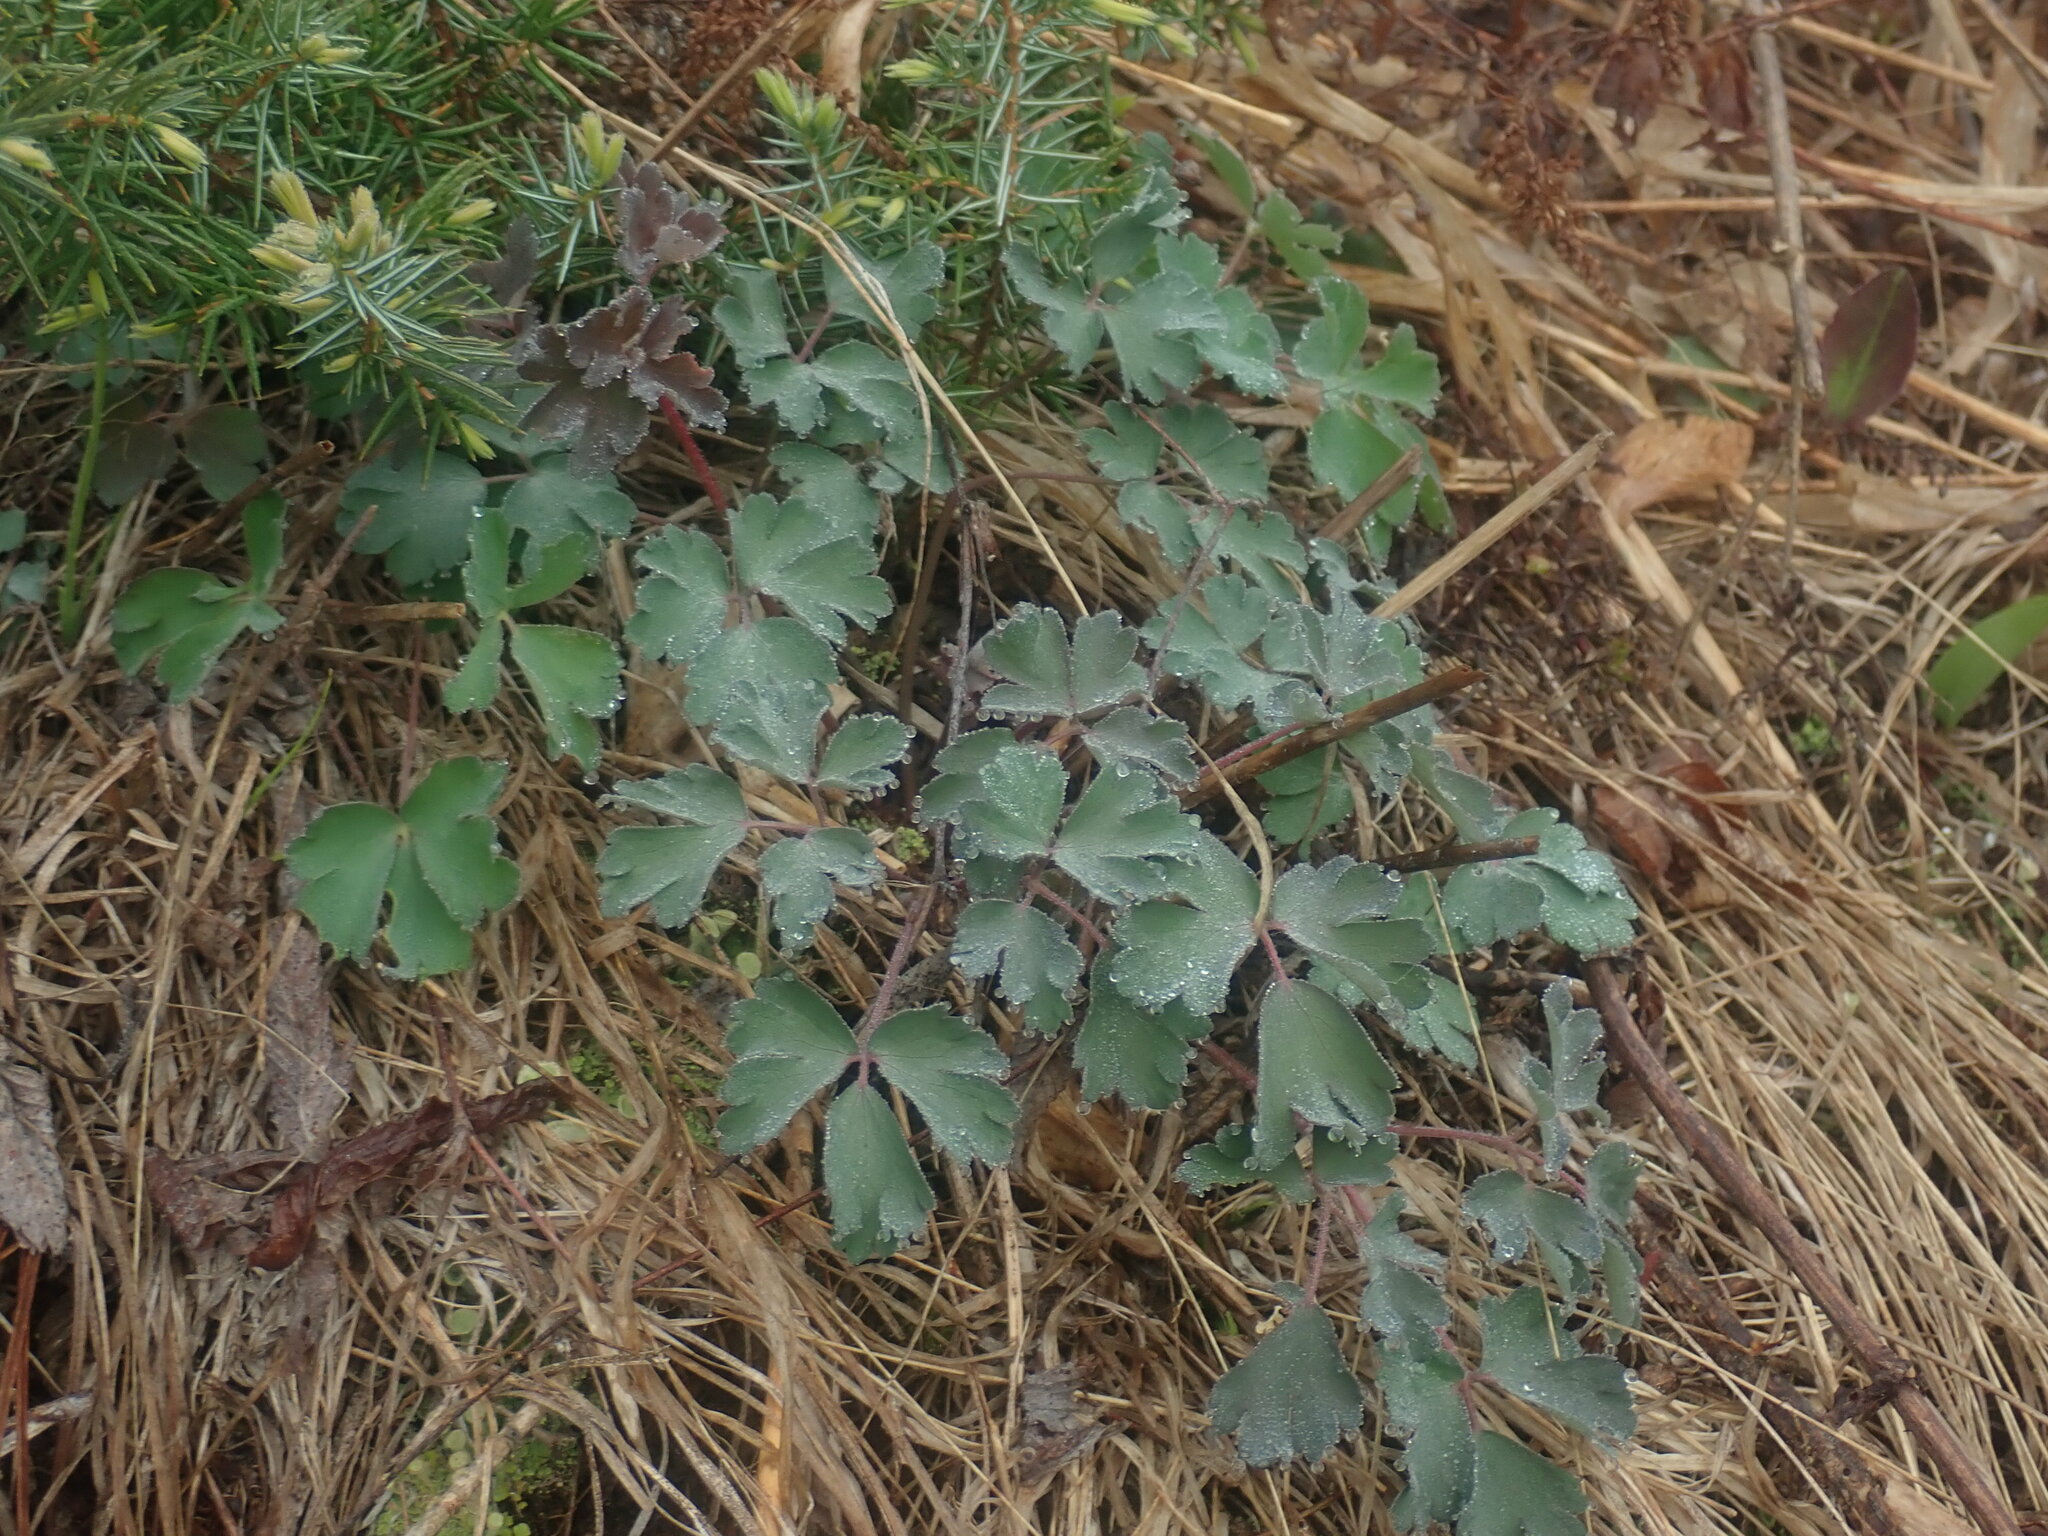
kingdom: Plantae
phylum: Tracheophyta
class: Magnoliopsida
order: Ranunculales
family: Ranunculaceae
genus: Aquilegia
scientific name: Aquilegia canadensis
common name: American columbine
